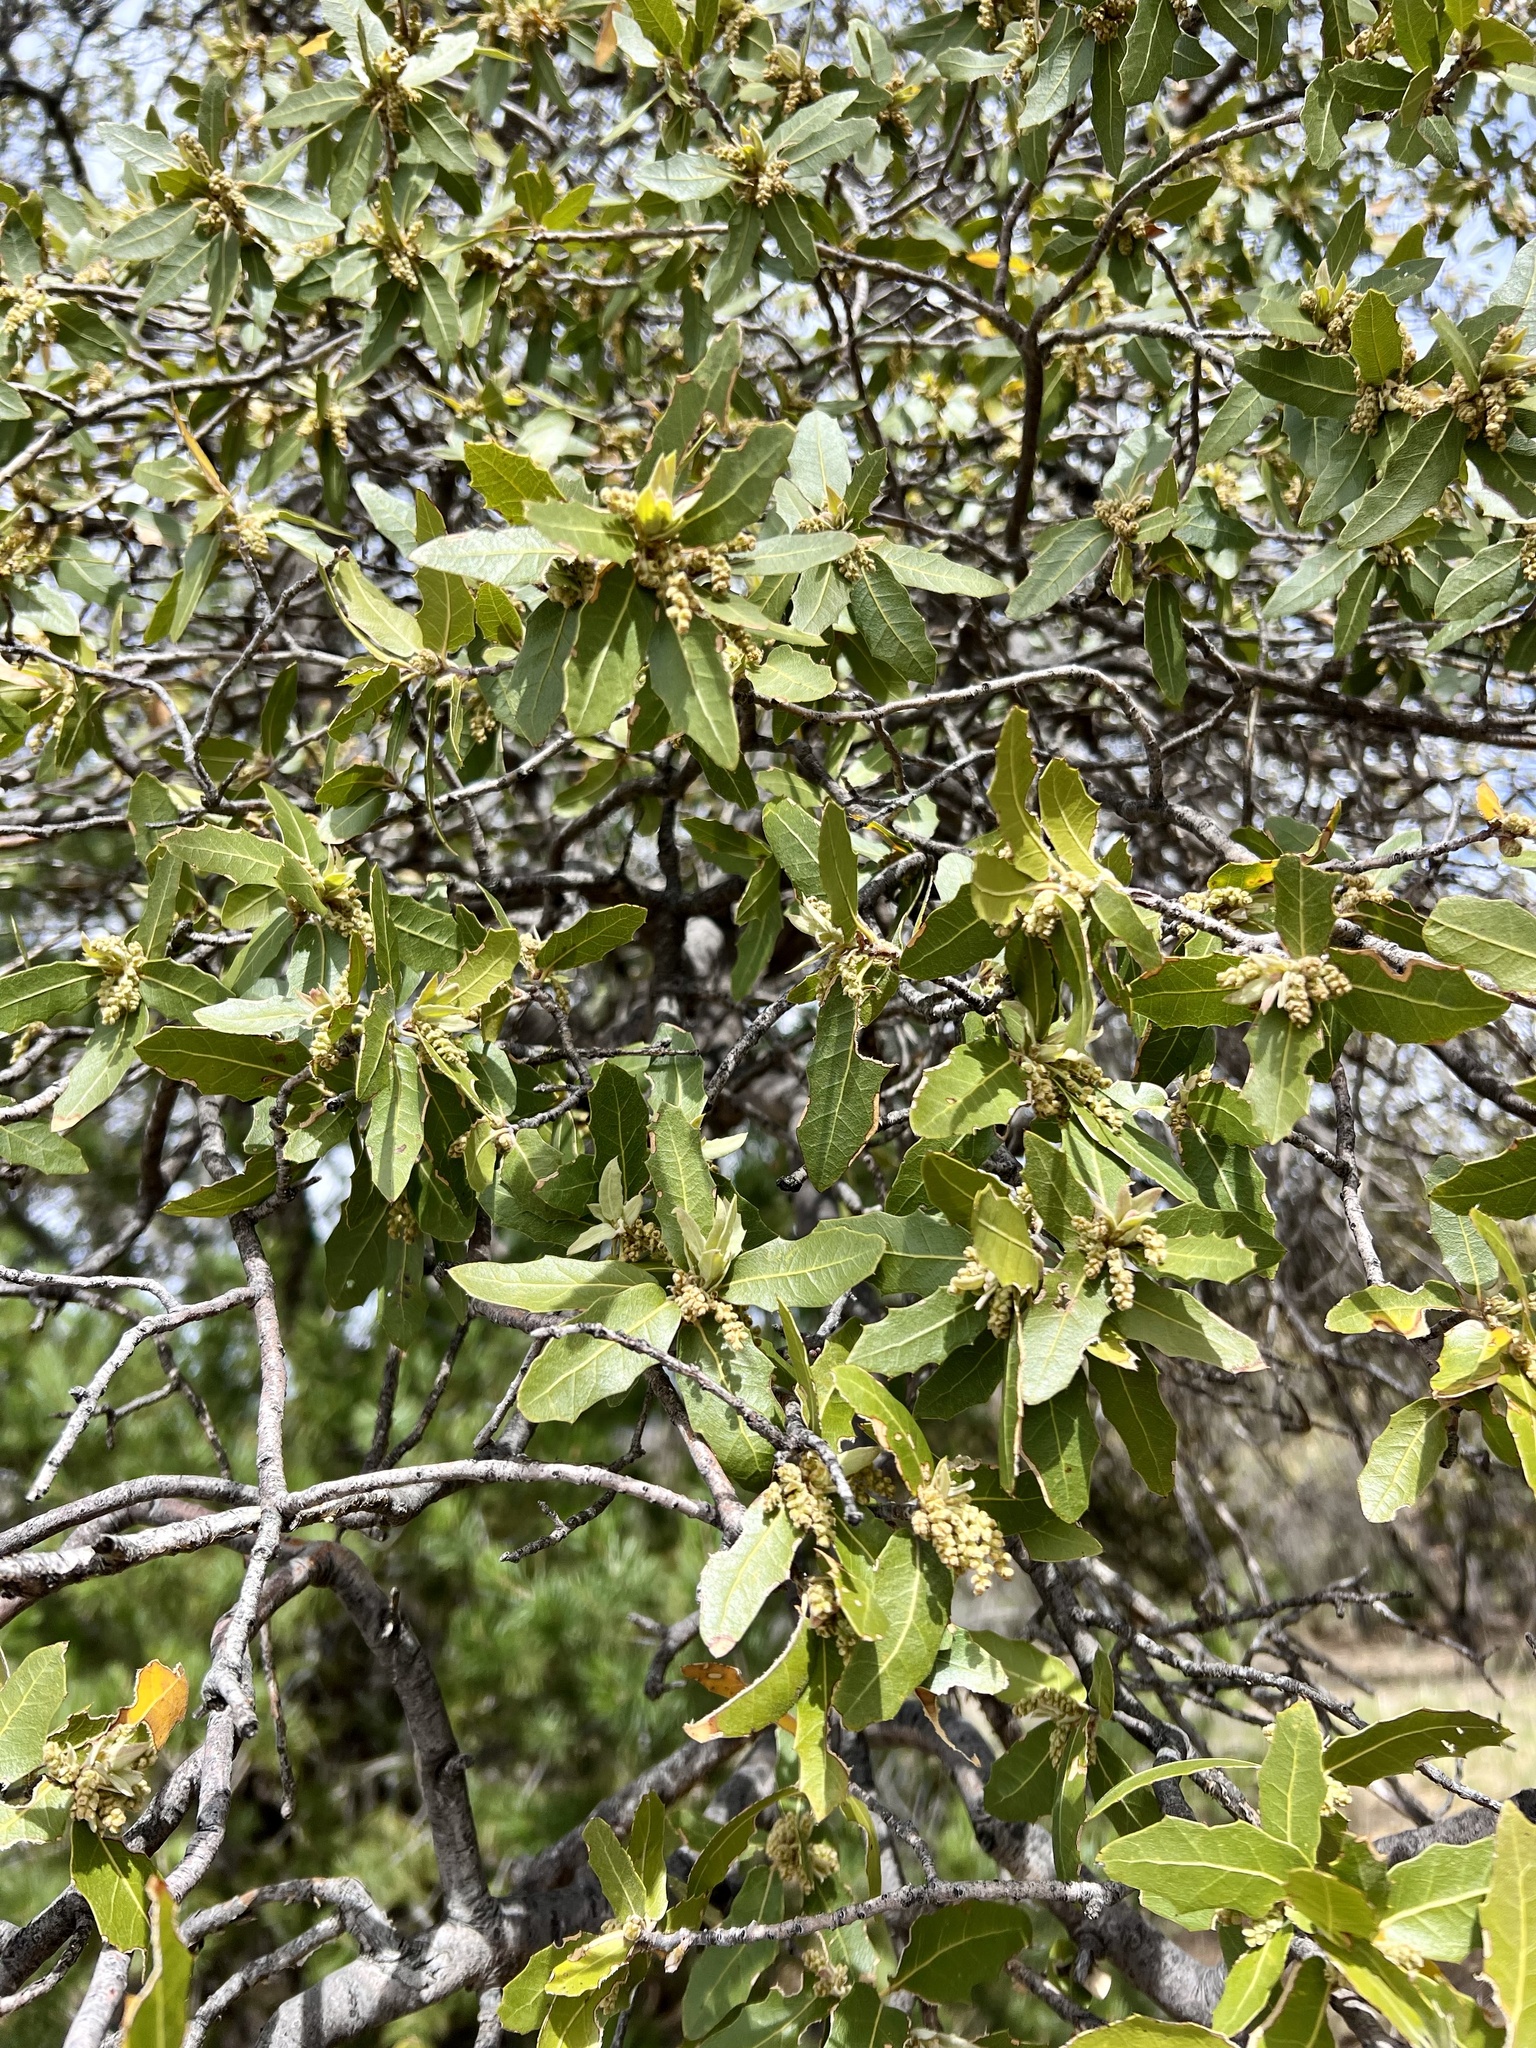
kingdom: Plantae
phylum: Tracheophyta
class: Magnoliopsida
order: Fagales
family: Fagaceae
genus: Quercus
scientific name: Quercus emoryi
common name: Emory oak
